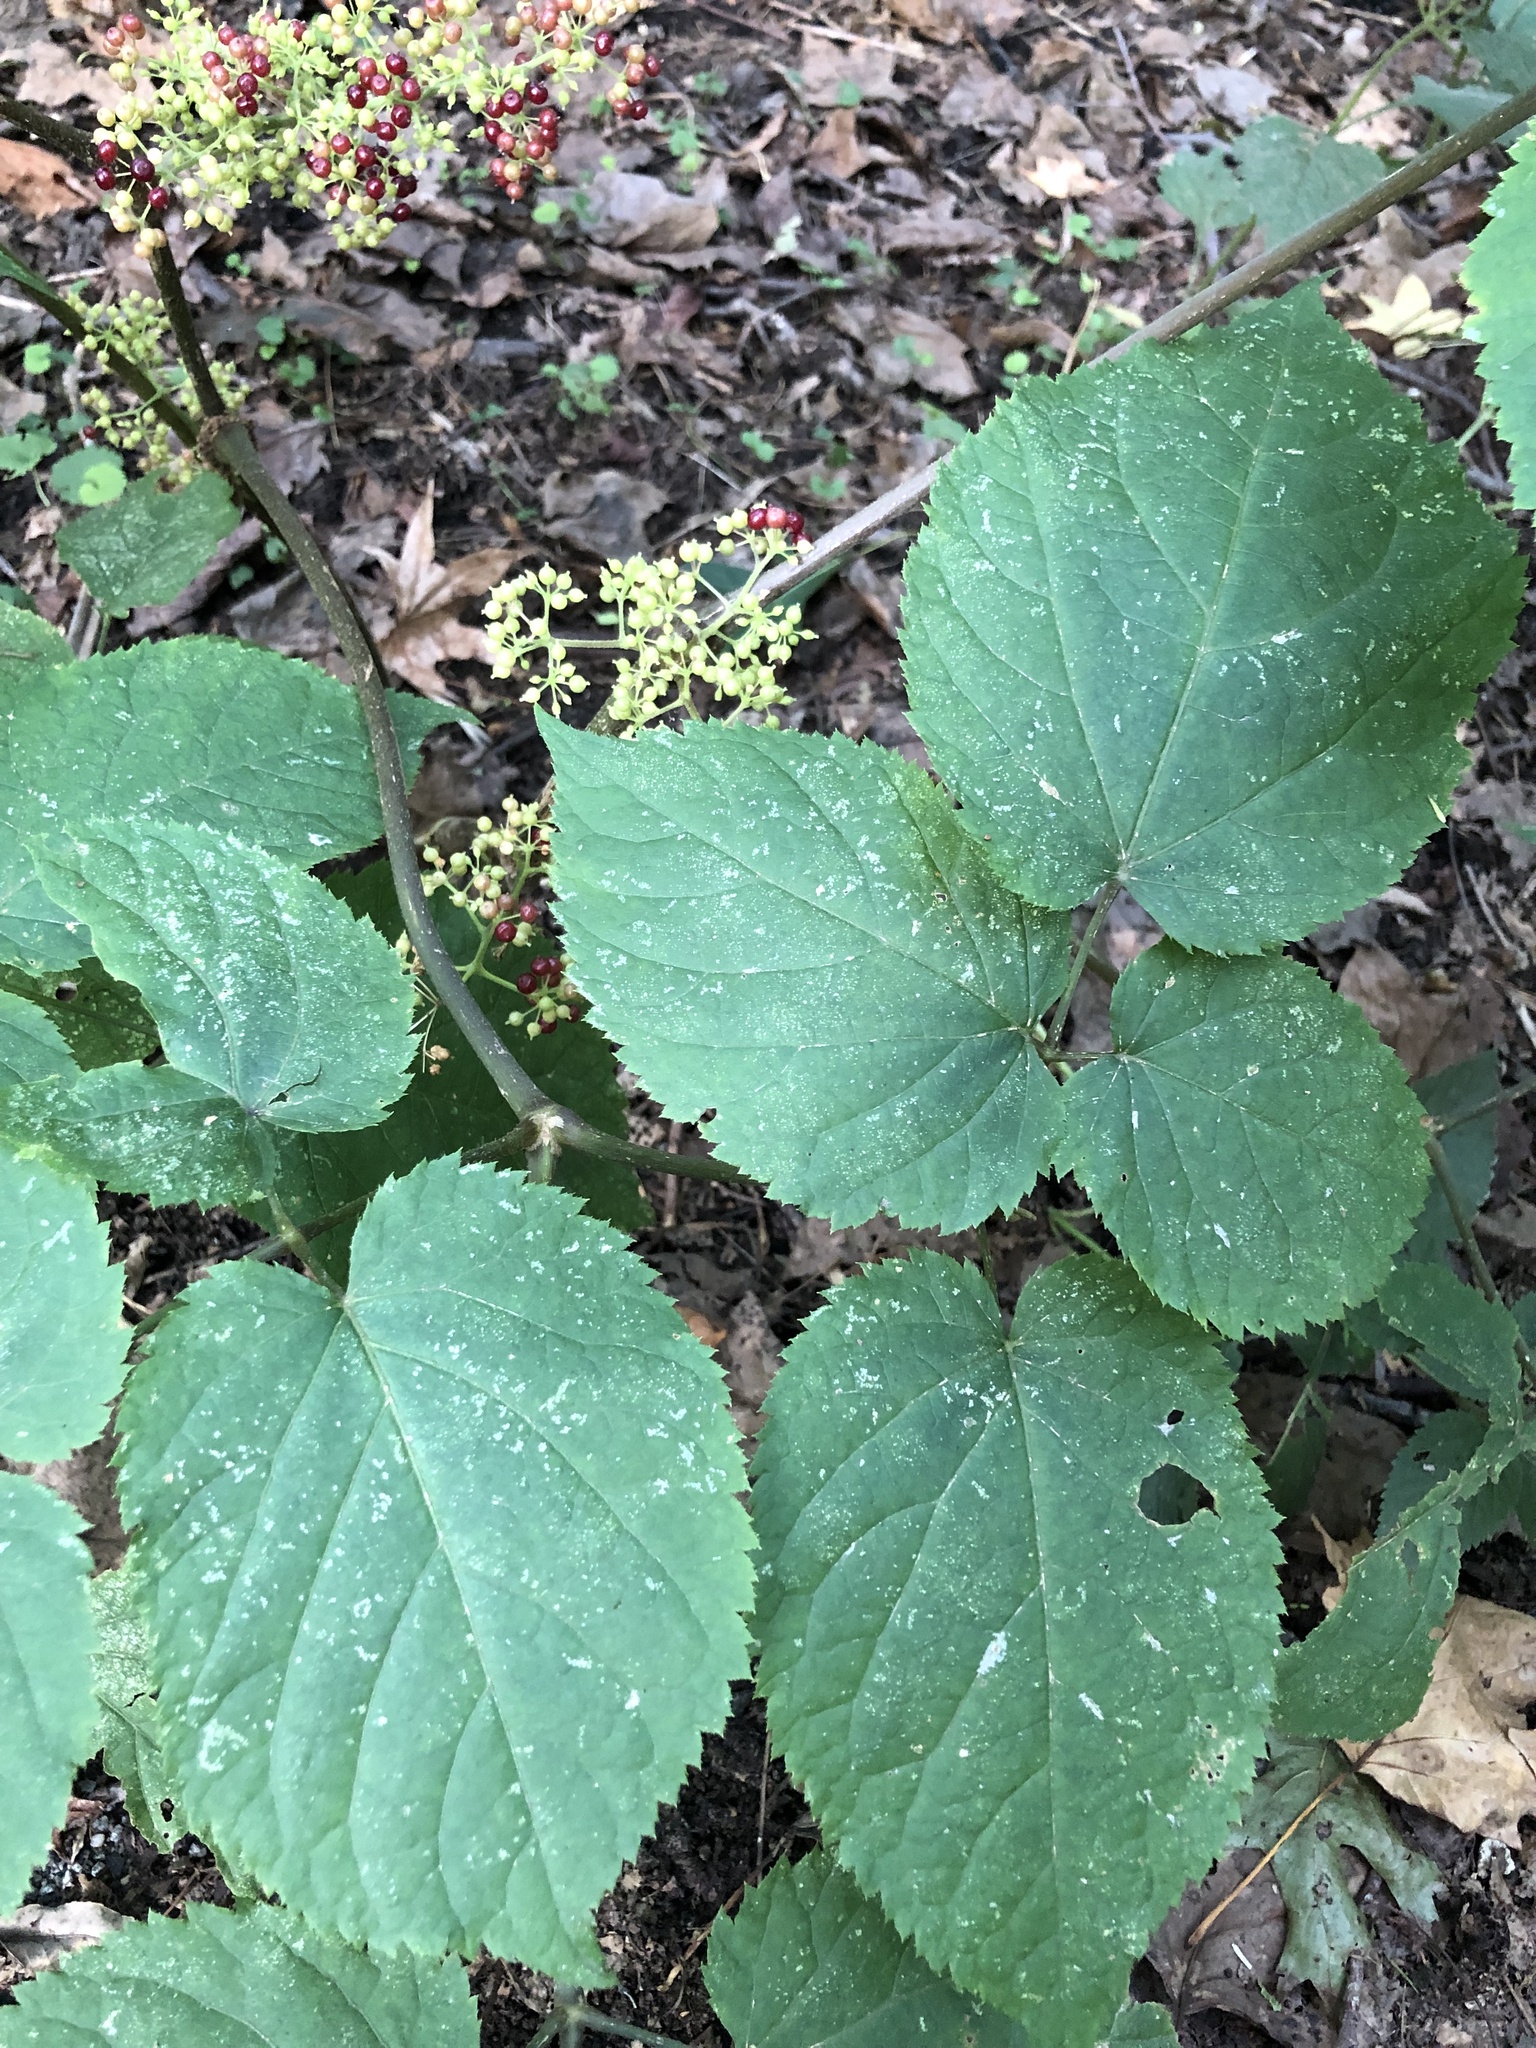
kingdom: Plantae
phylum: Tracheophyta
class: Magnoliopsida
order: Apiales
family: Araliaceae
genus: Aralia
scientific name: Aralia racemosa
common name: American-spikenard
